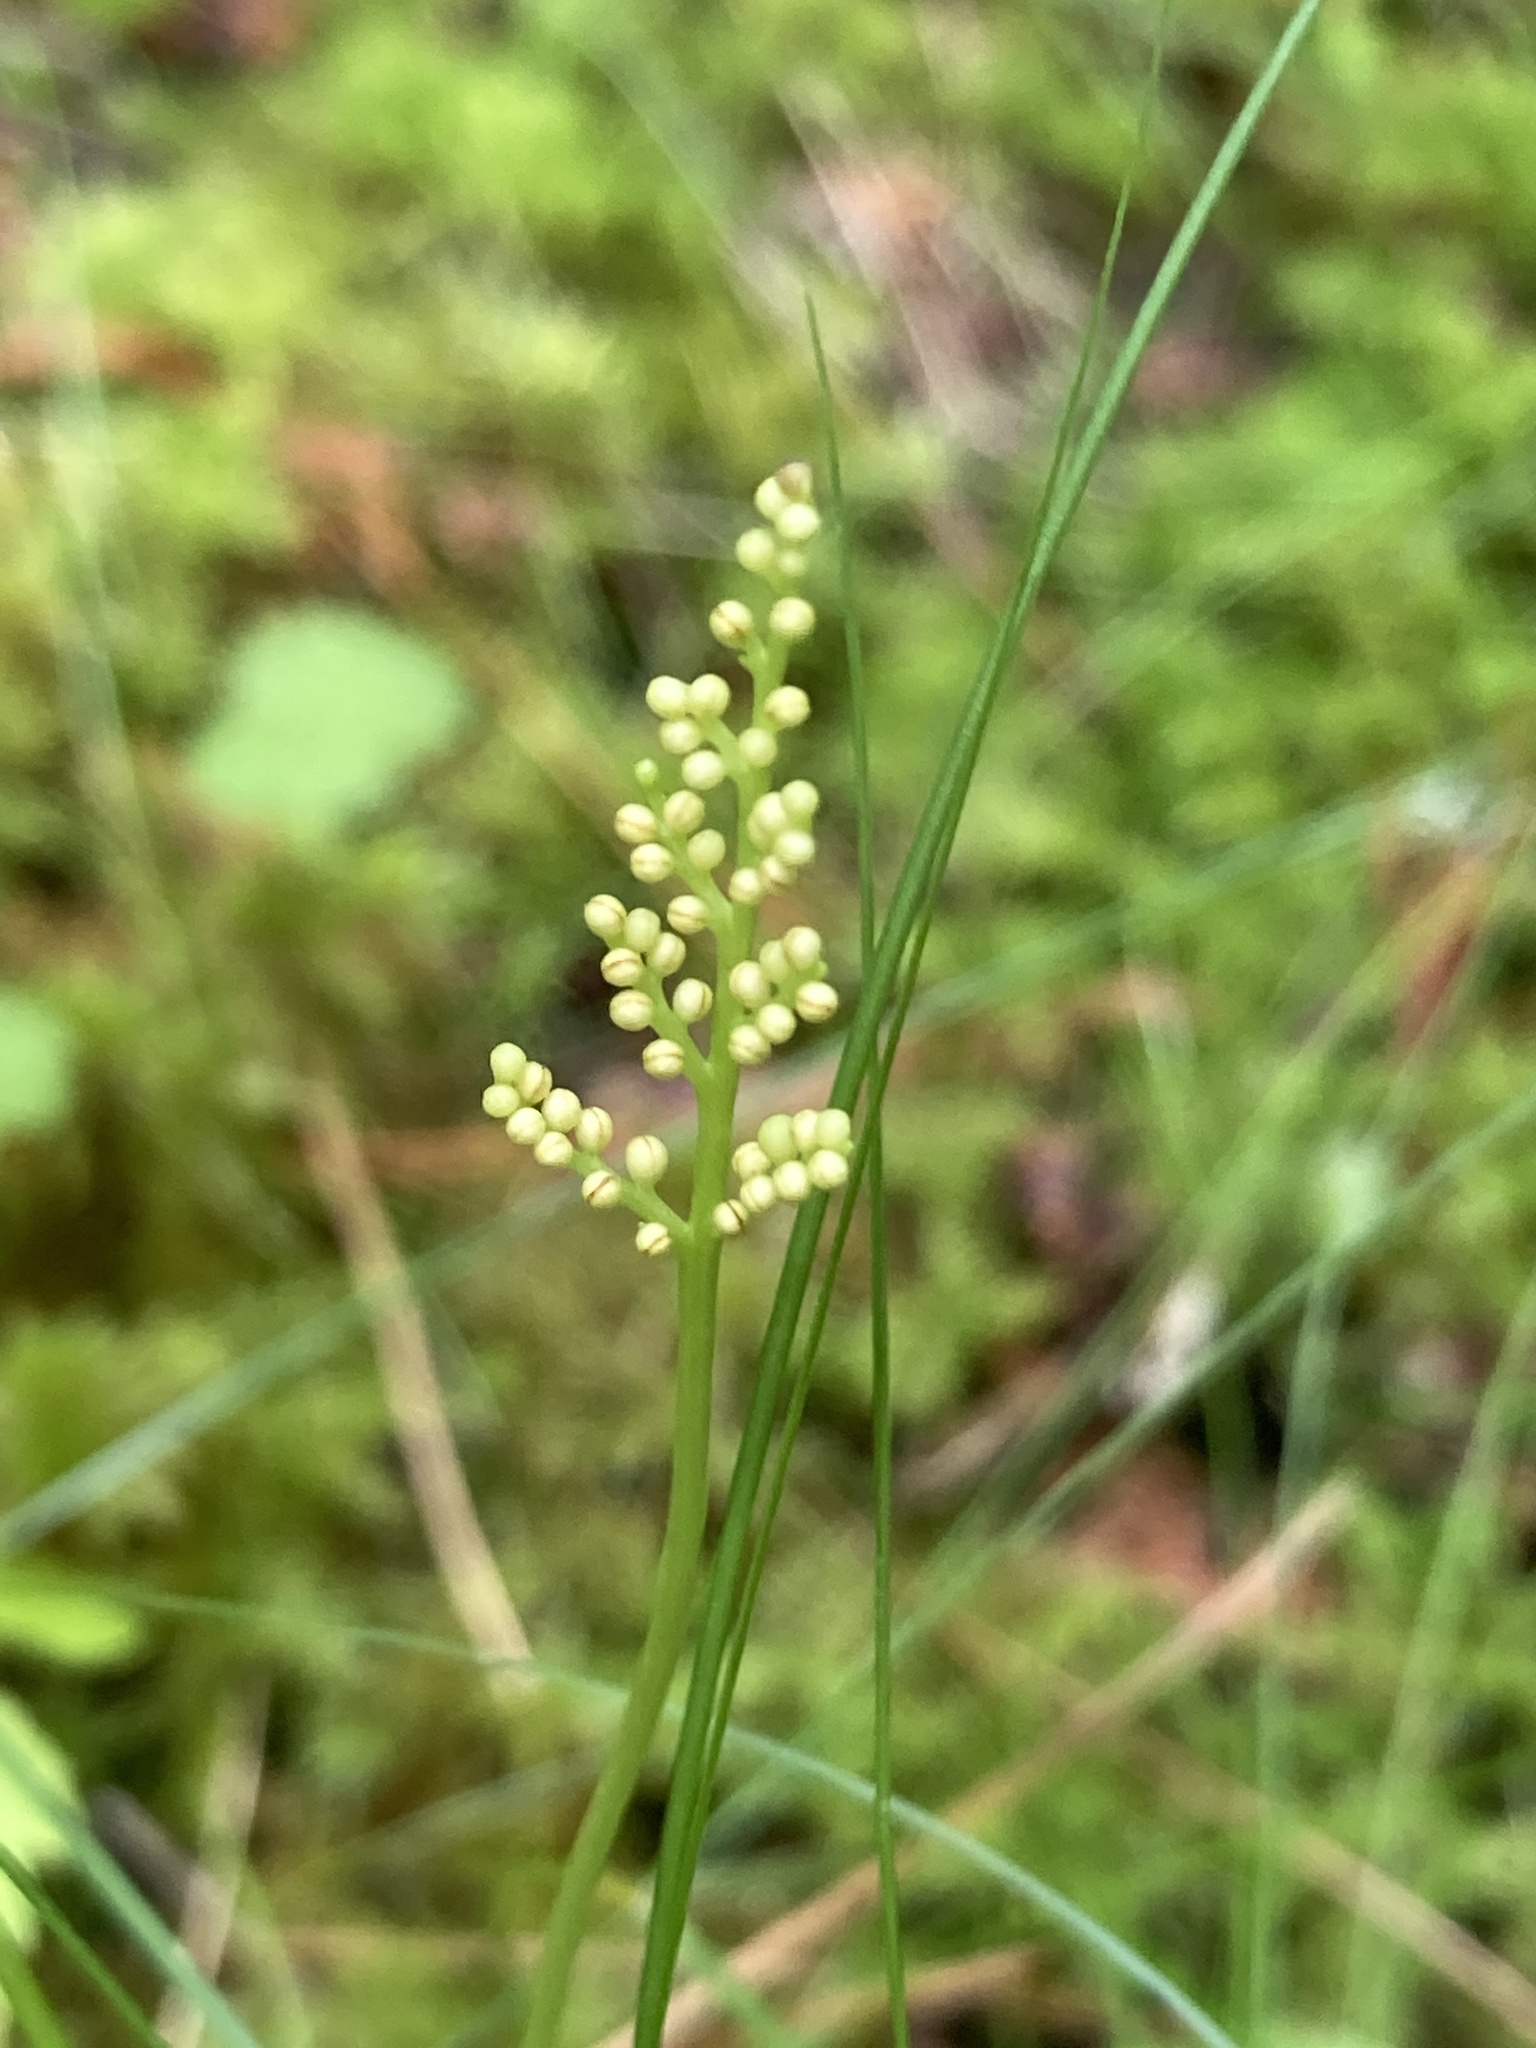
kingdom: Plantae
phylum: Tracheophyta
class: Polypodiopsida
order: Ophioglossales
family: Ophioglossaceae
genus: Botrypus
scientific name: Botrypus virginianus
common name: Common grapefern
